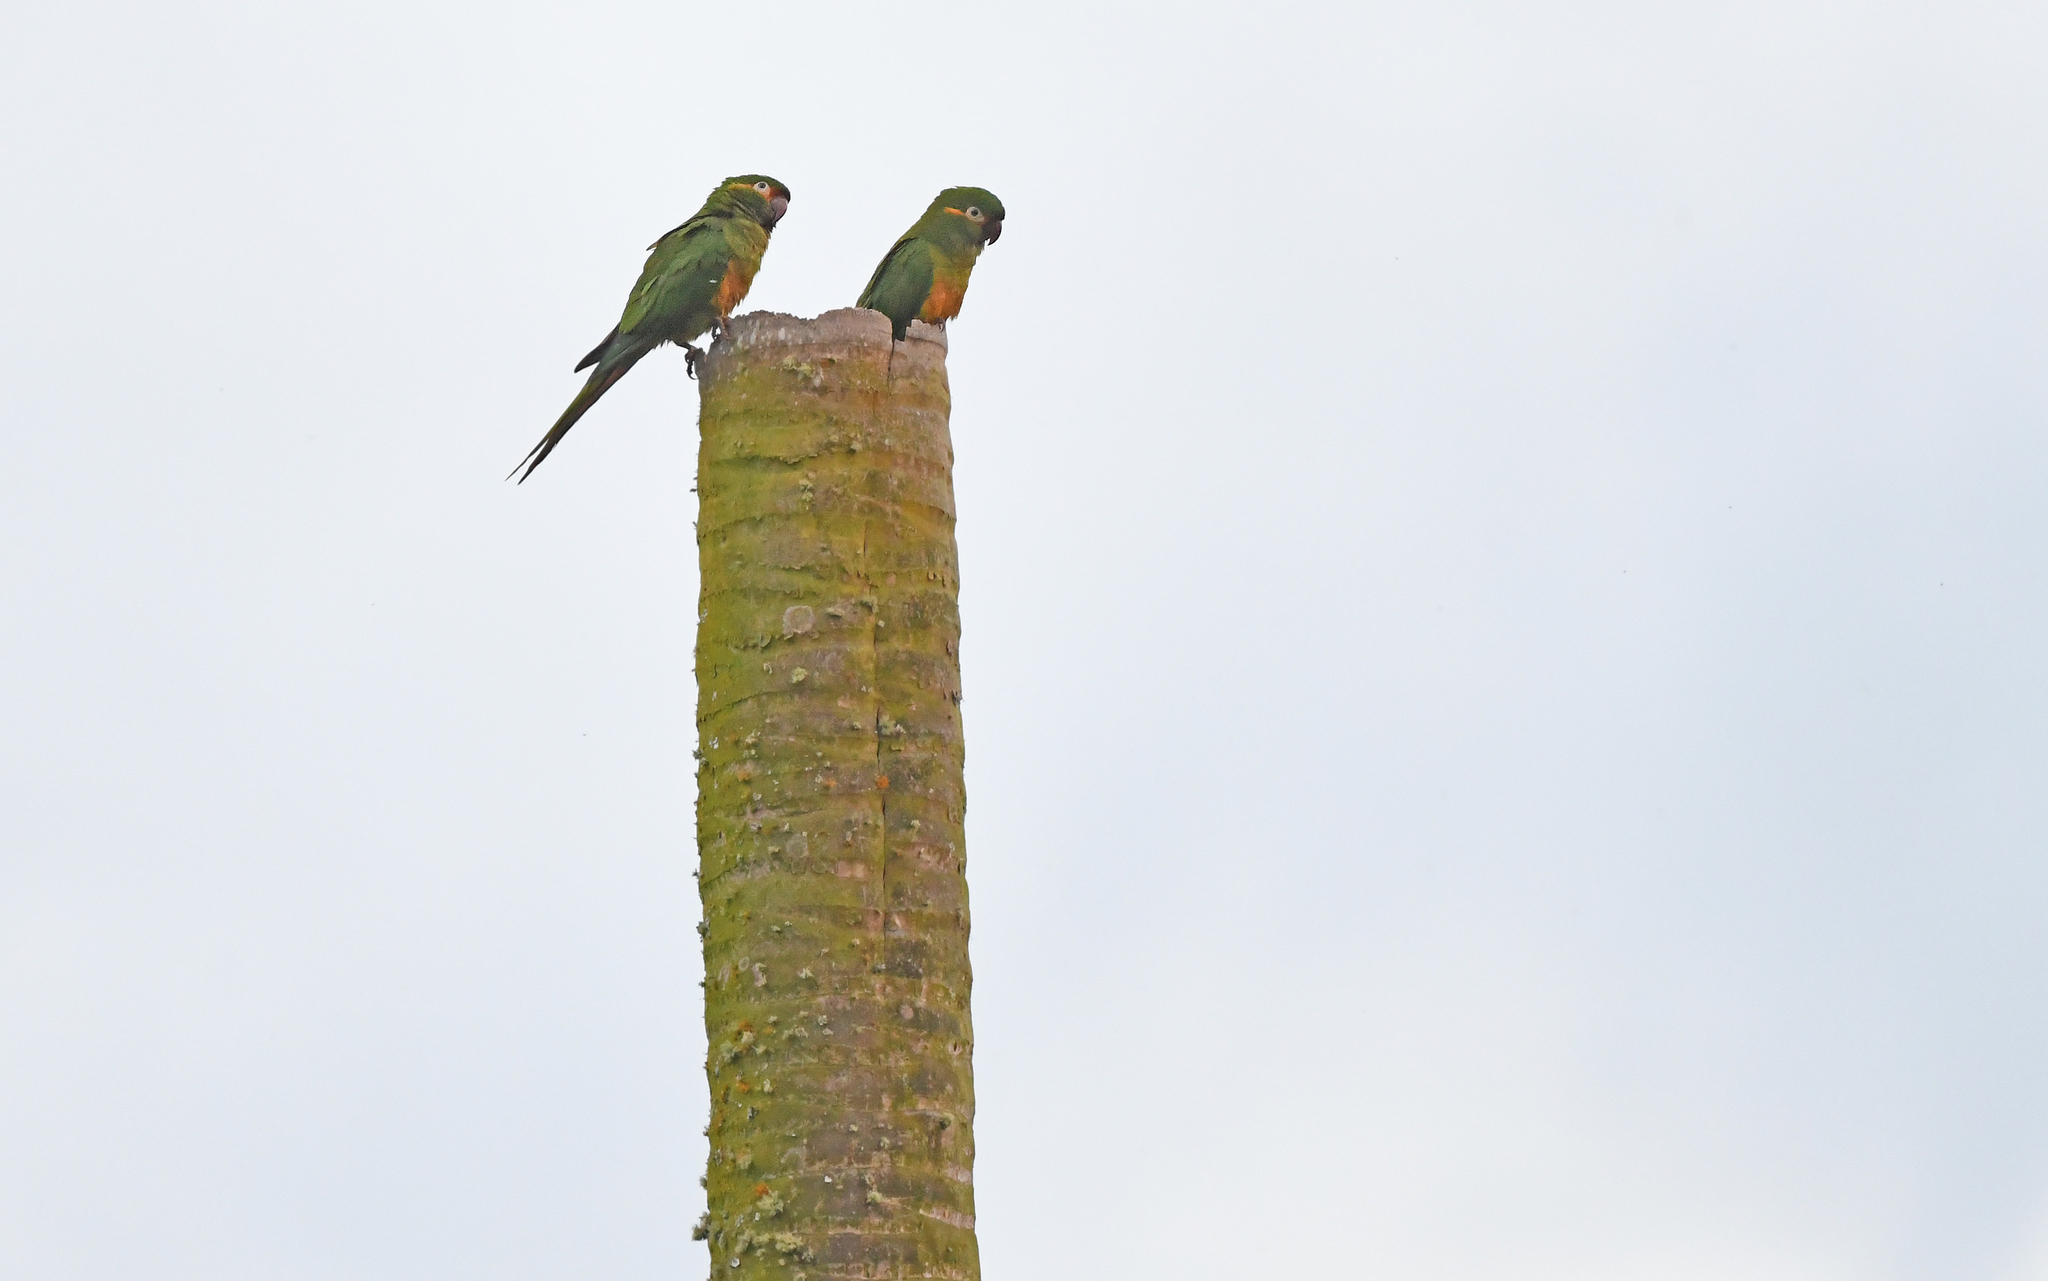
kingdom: Animalia
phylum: Chordata
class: Aves
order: Psittaciformes
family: Psittacidae
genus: Leptosittaca
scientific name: Leptosittaca branickii
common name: Golden-plumed parakeet
